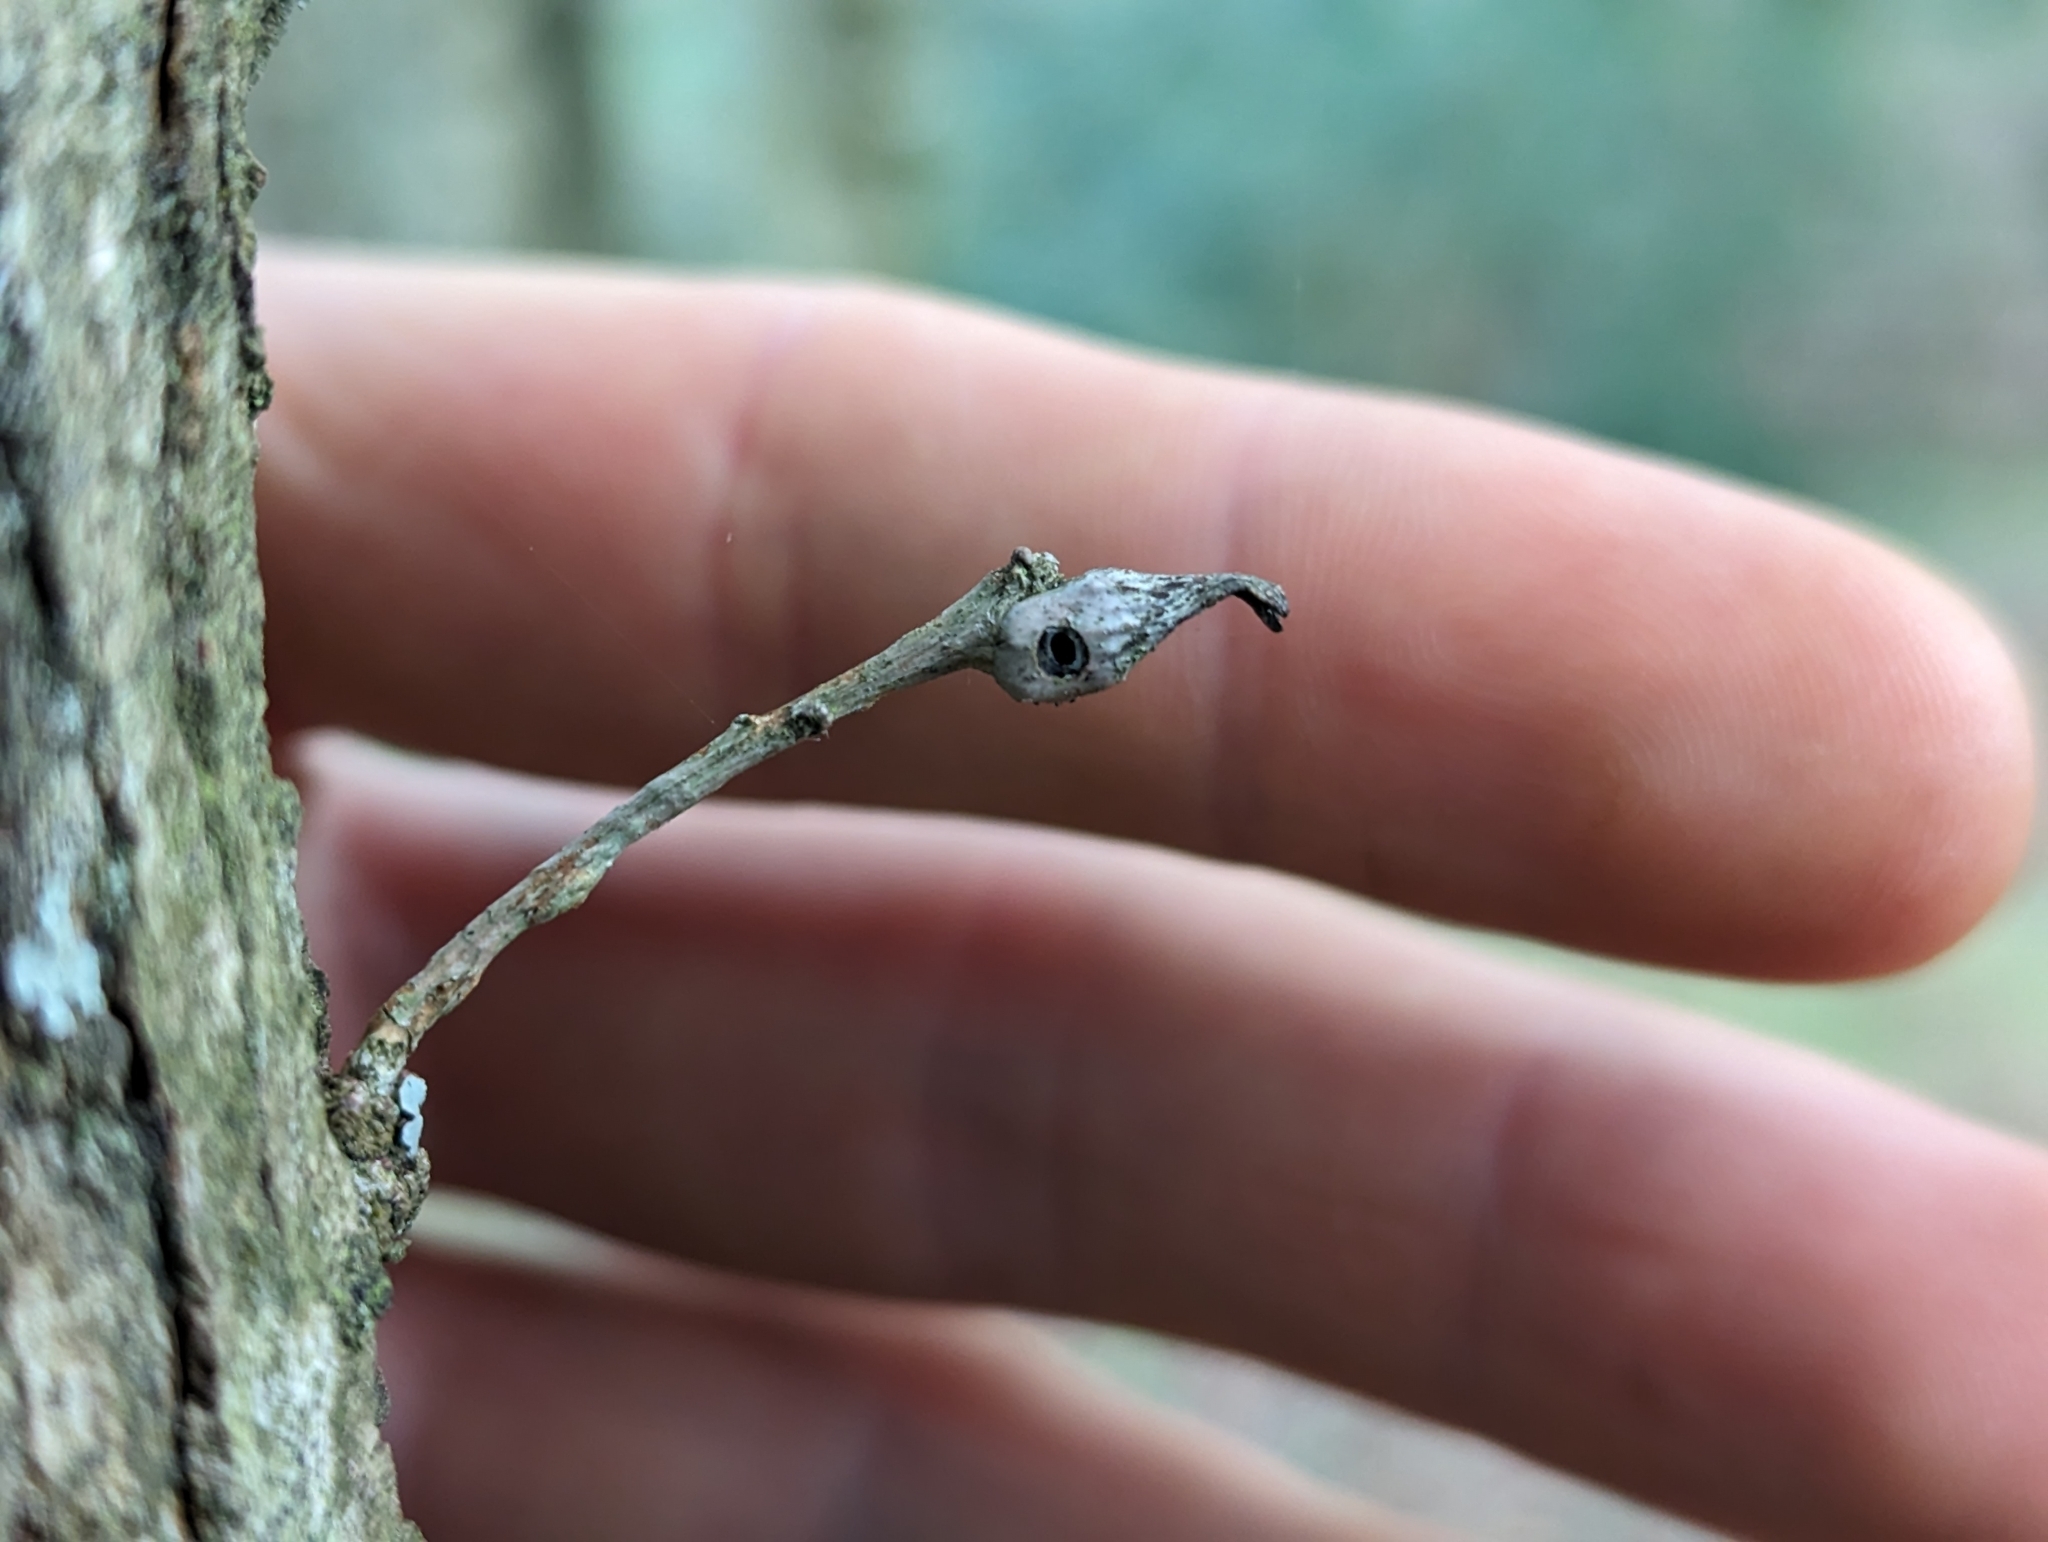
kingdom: Animalia
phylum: Arthropoda
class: Insecta
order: Hymenoptera
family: Cynipidae
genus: Andricus
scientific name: Andricus aries
